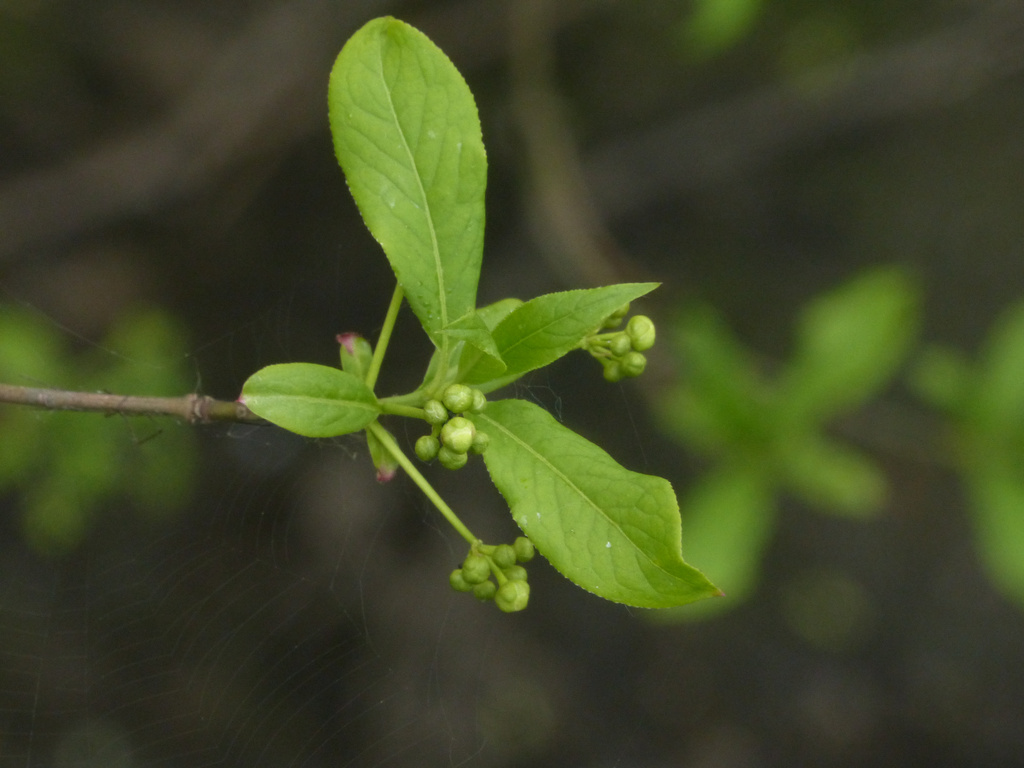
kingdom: Plantae
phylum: Tracheophyta
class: Magnoliopsida
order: Celastrales
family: Celastraceae
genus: Euonymus
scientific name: Euonymus europaeus
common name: Spindle
